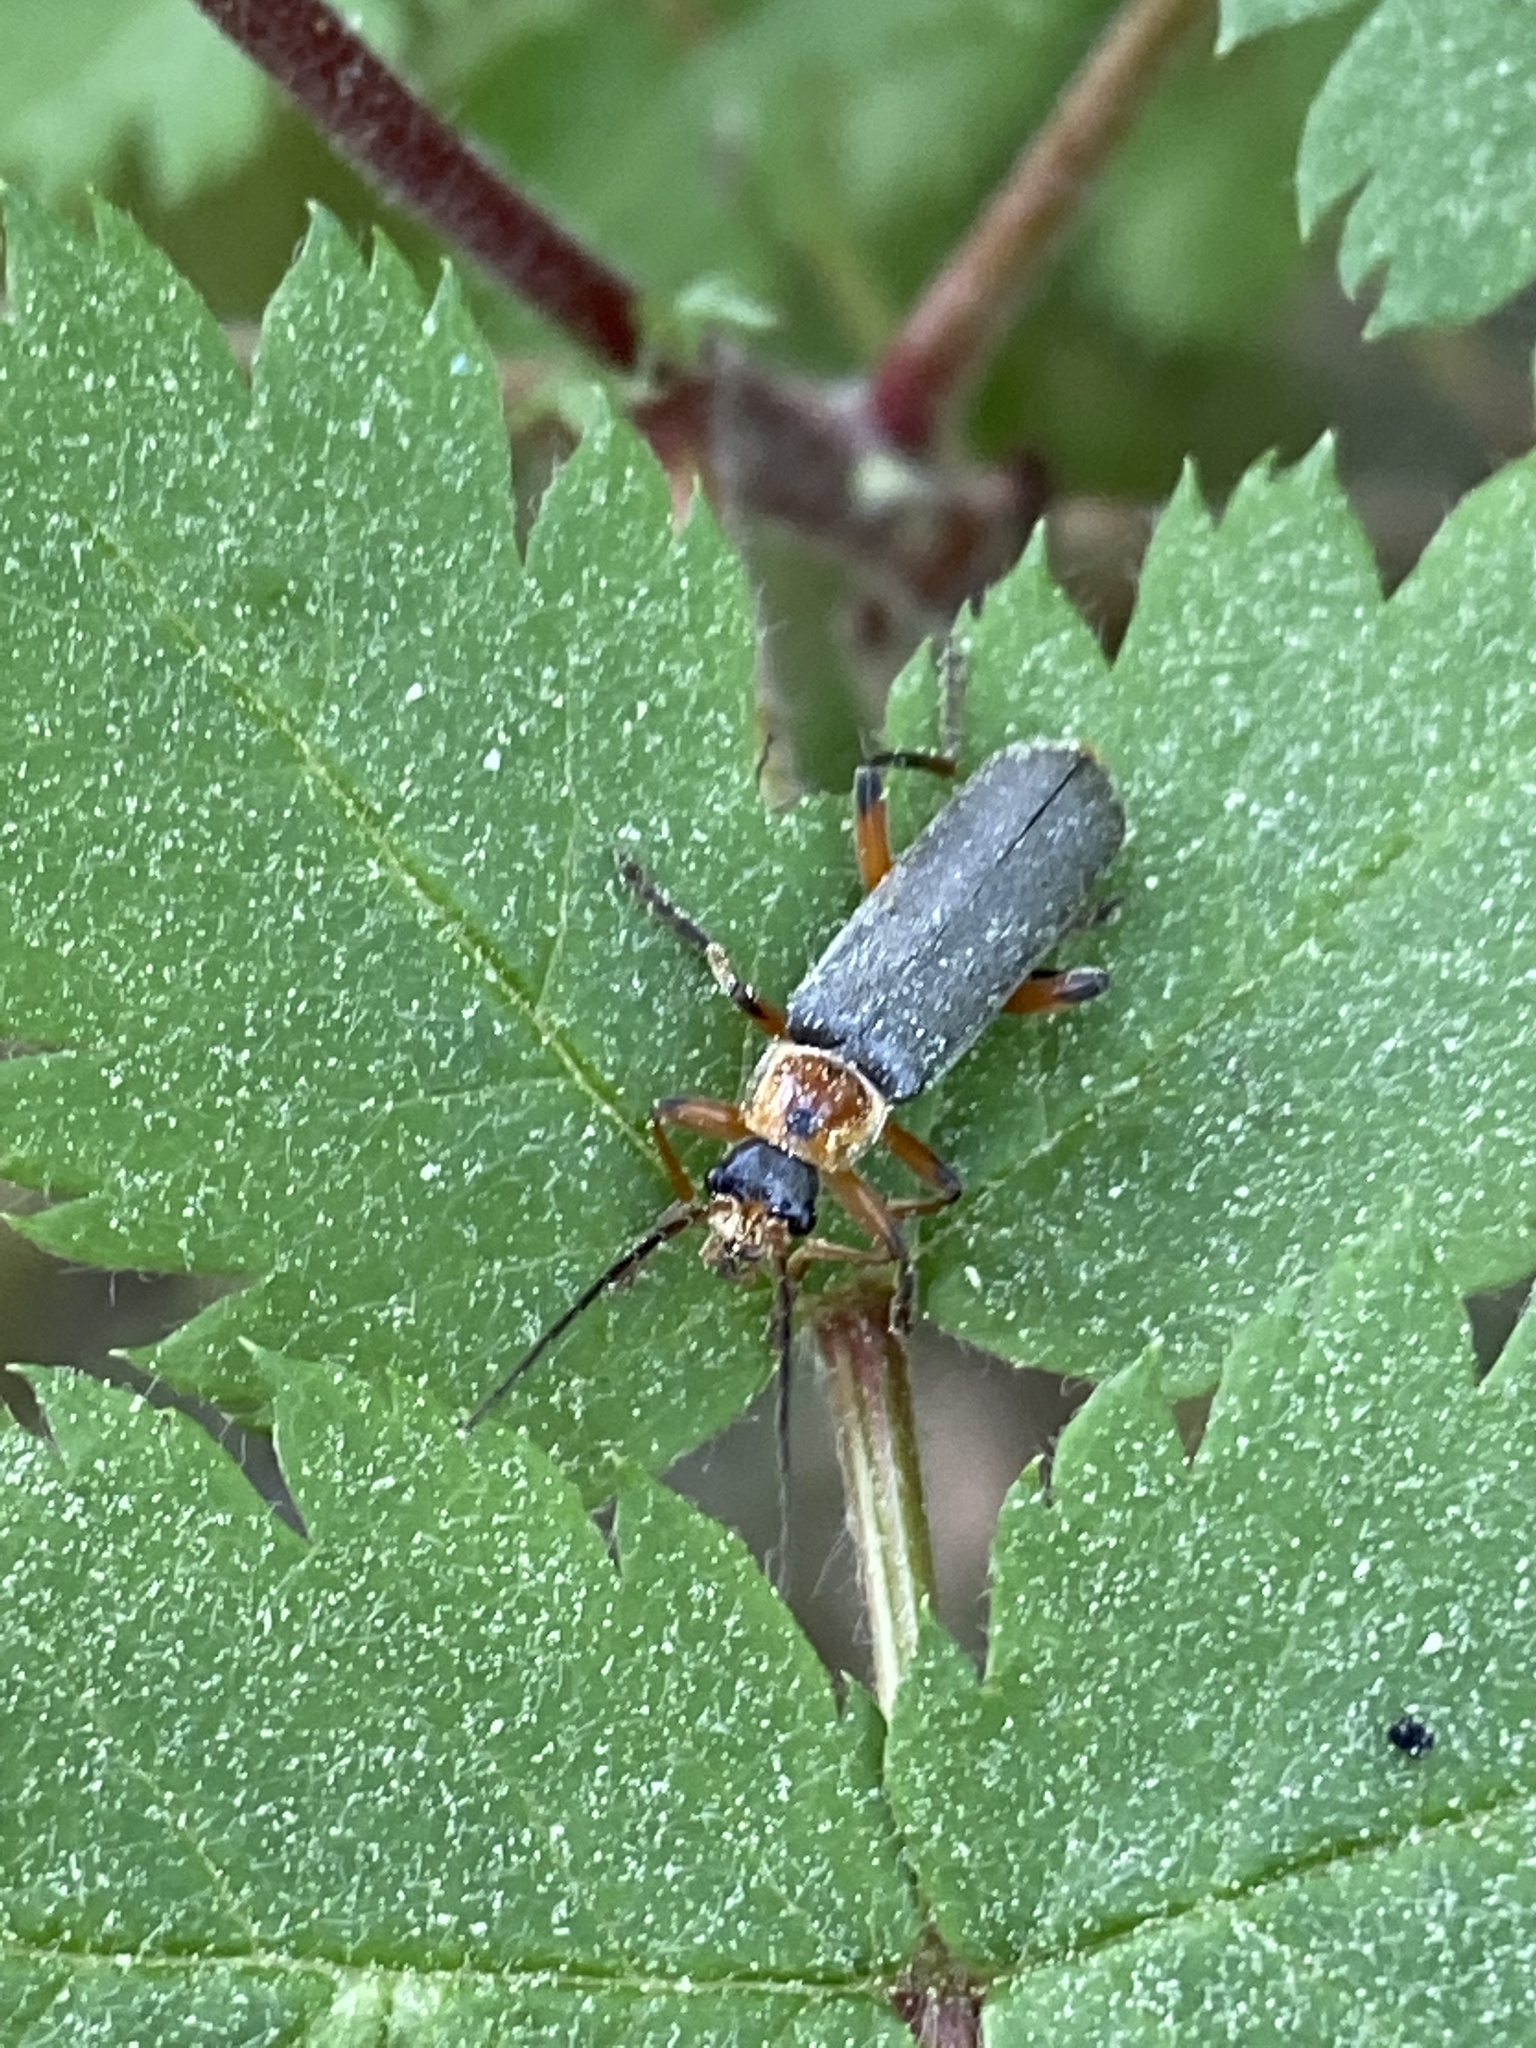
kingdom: Animalia
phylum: Arthropoda
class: Insecta
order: Coleoptera
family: Cantharidae
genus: Cantharis
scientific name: Cantharis nigricans
